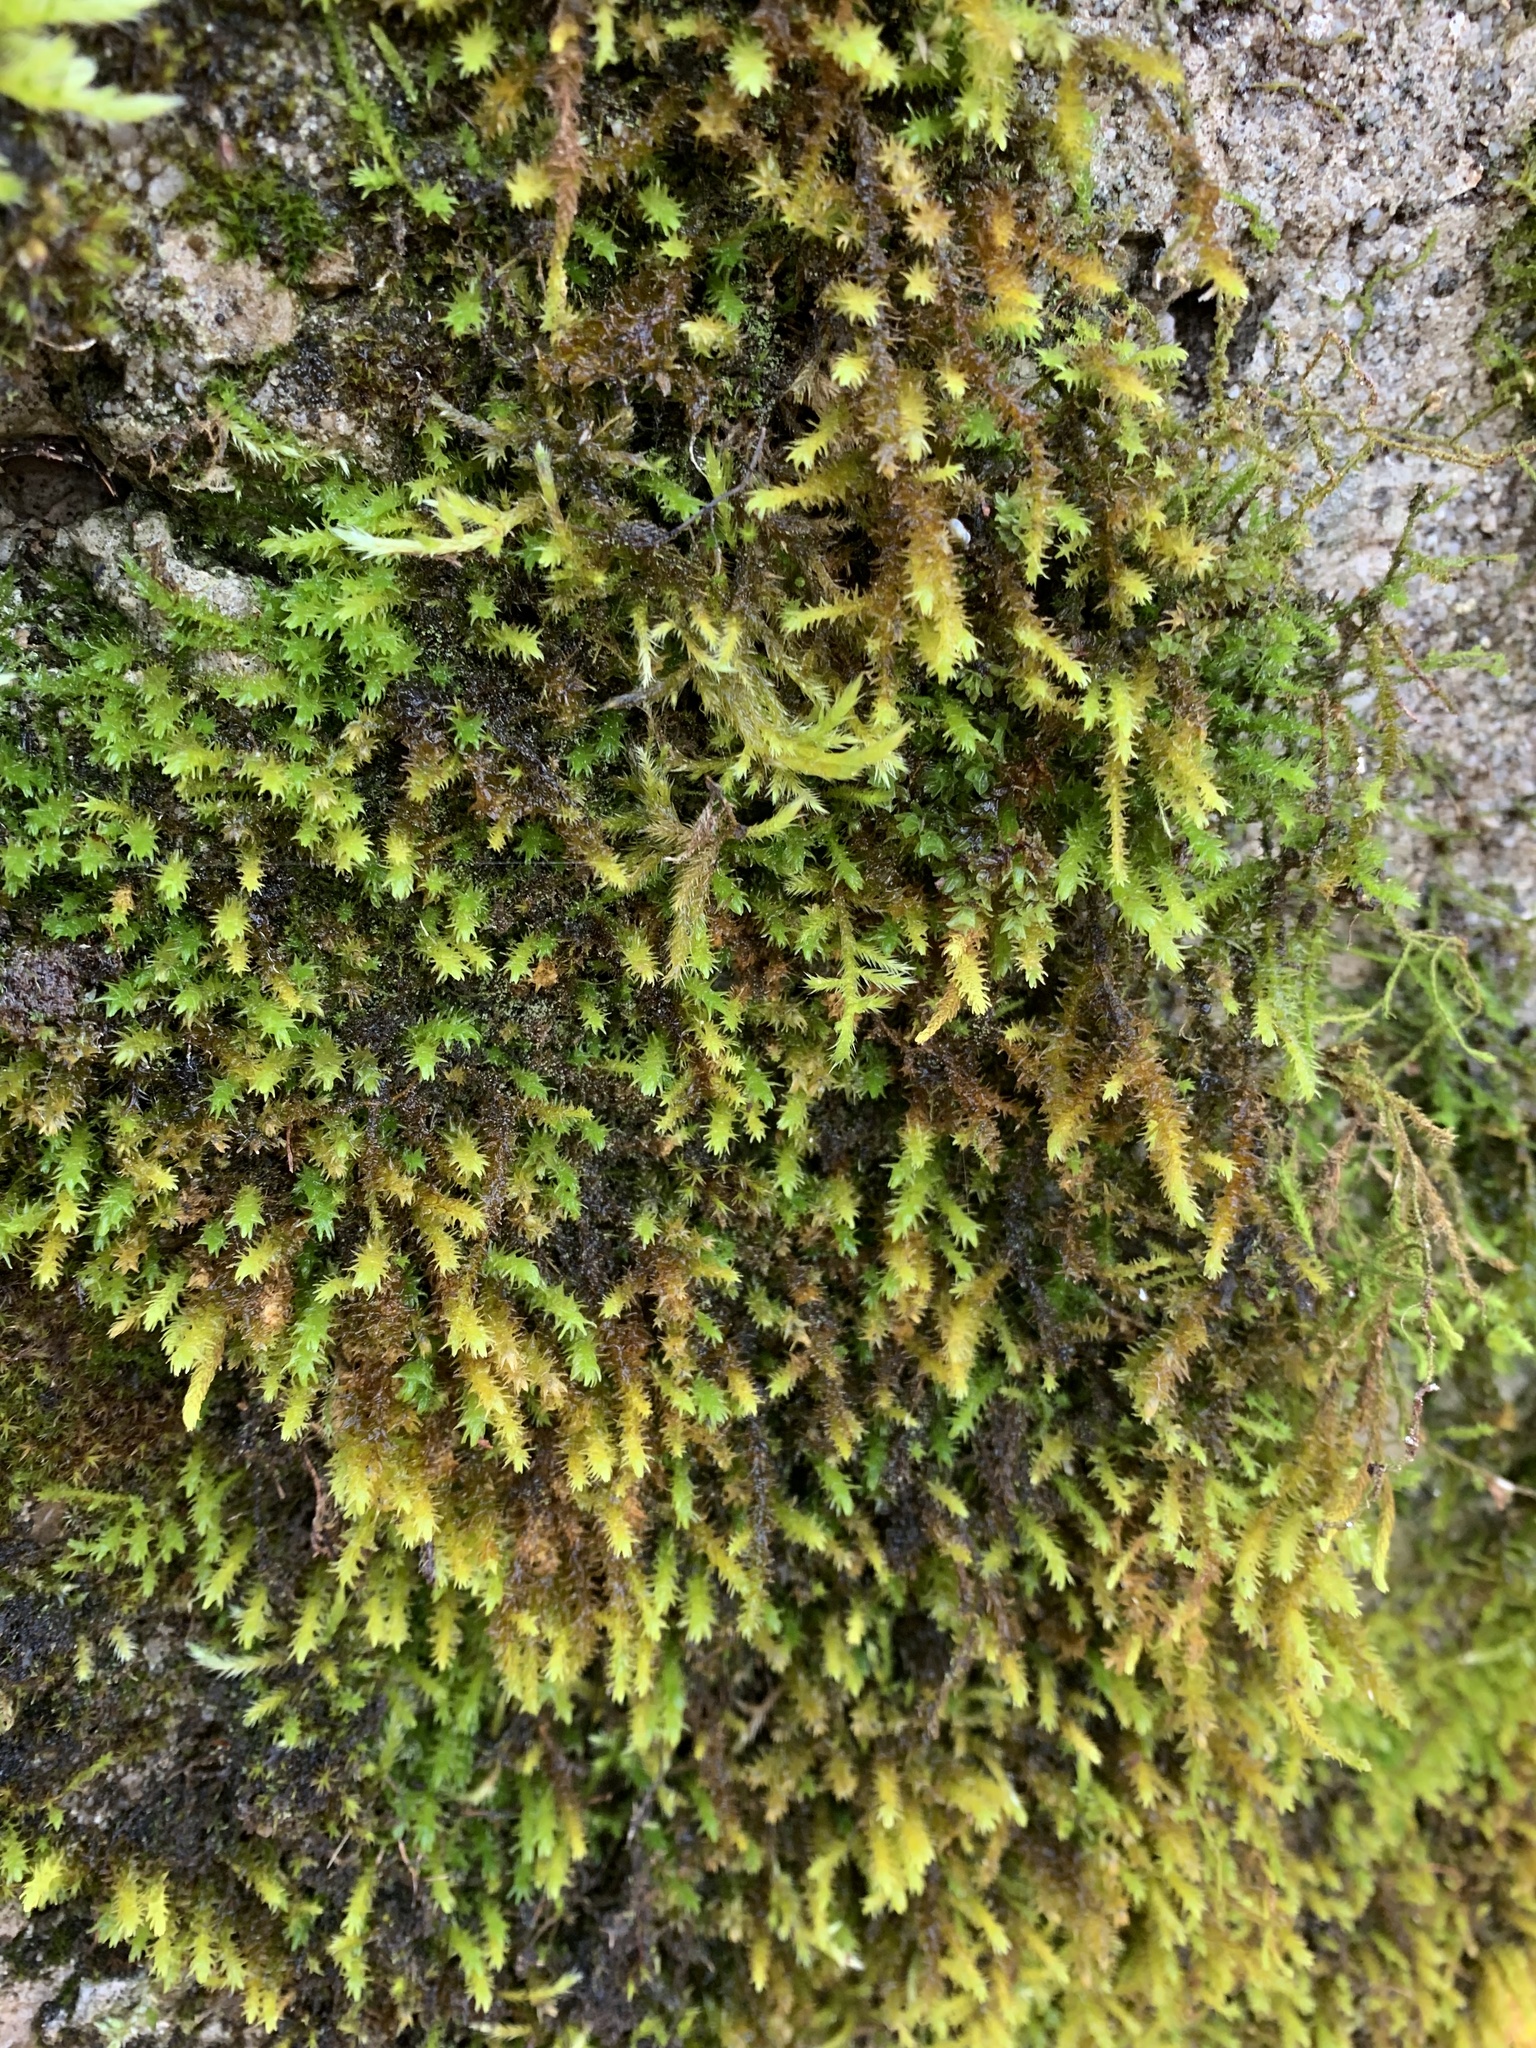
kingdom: Plantae
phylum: Bryophyta
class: Bryopsida
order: Hypnales
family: Neckeraceae
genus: Pseudanomodon
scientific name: Pseudanomodon attenuatus
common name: Tree-skirt moss
